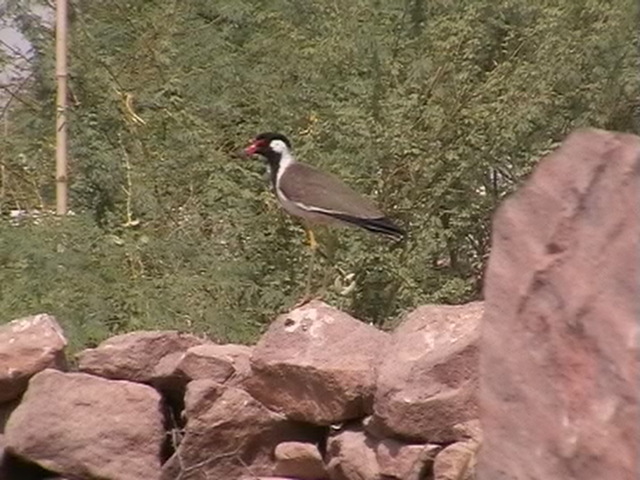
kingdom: Animalia
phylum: Chordata
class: Aves
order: Charadriiformes
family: Charadriidae
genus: Vanellus
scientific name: Vanellus indicus
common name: Red-wattled lapwing
